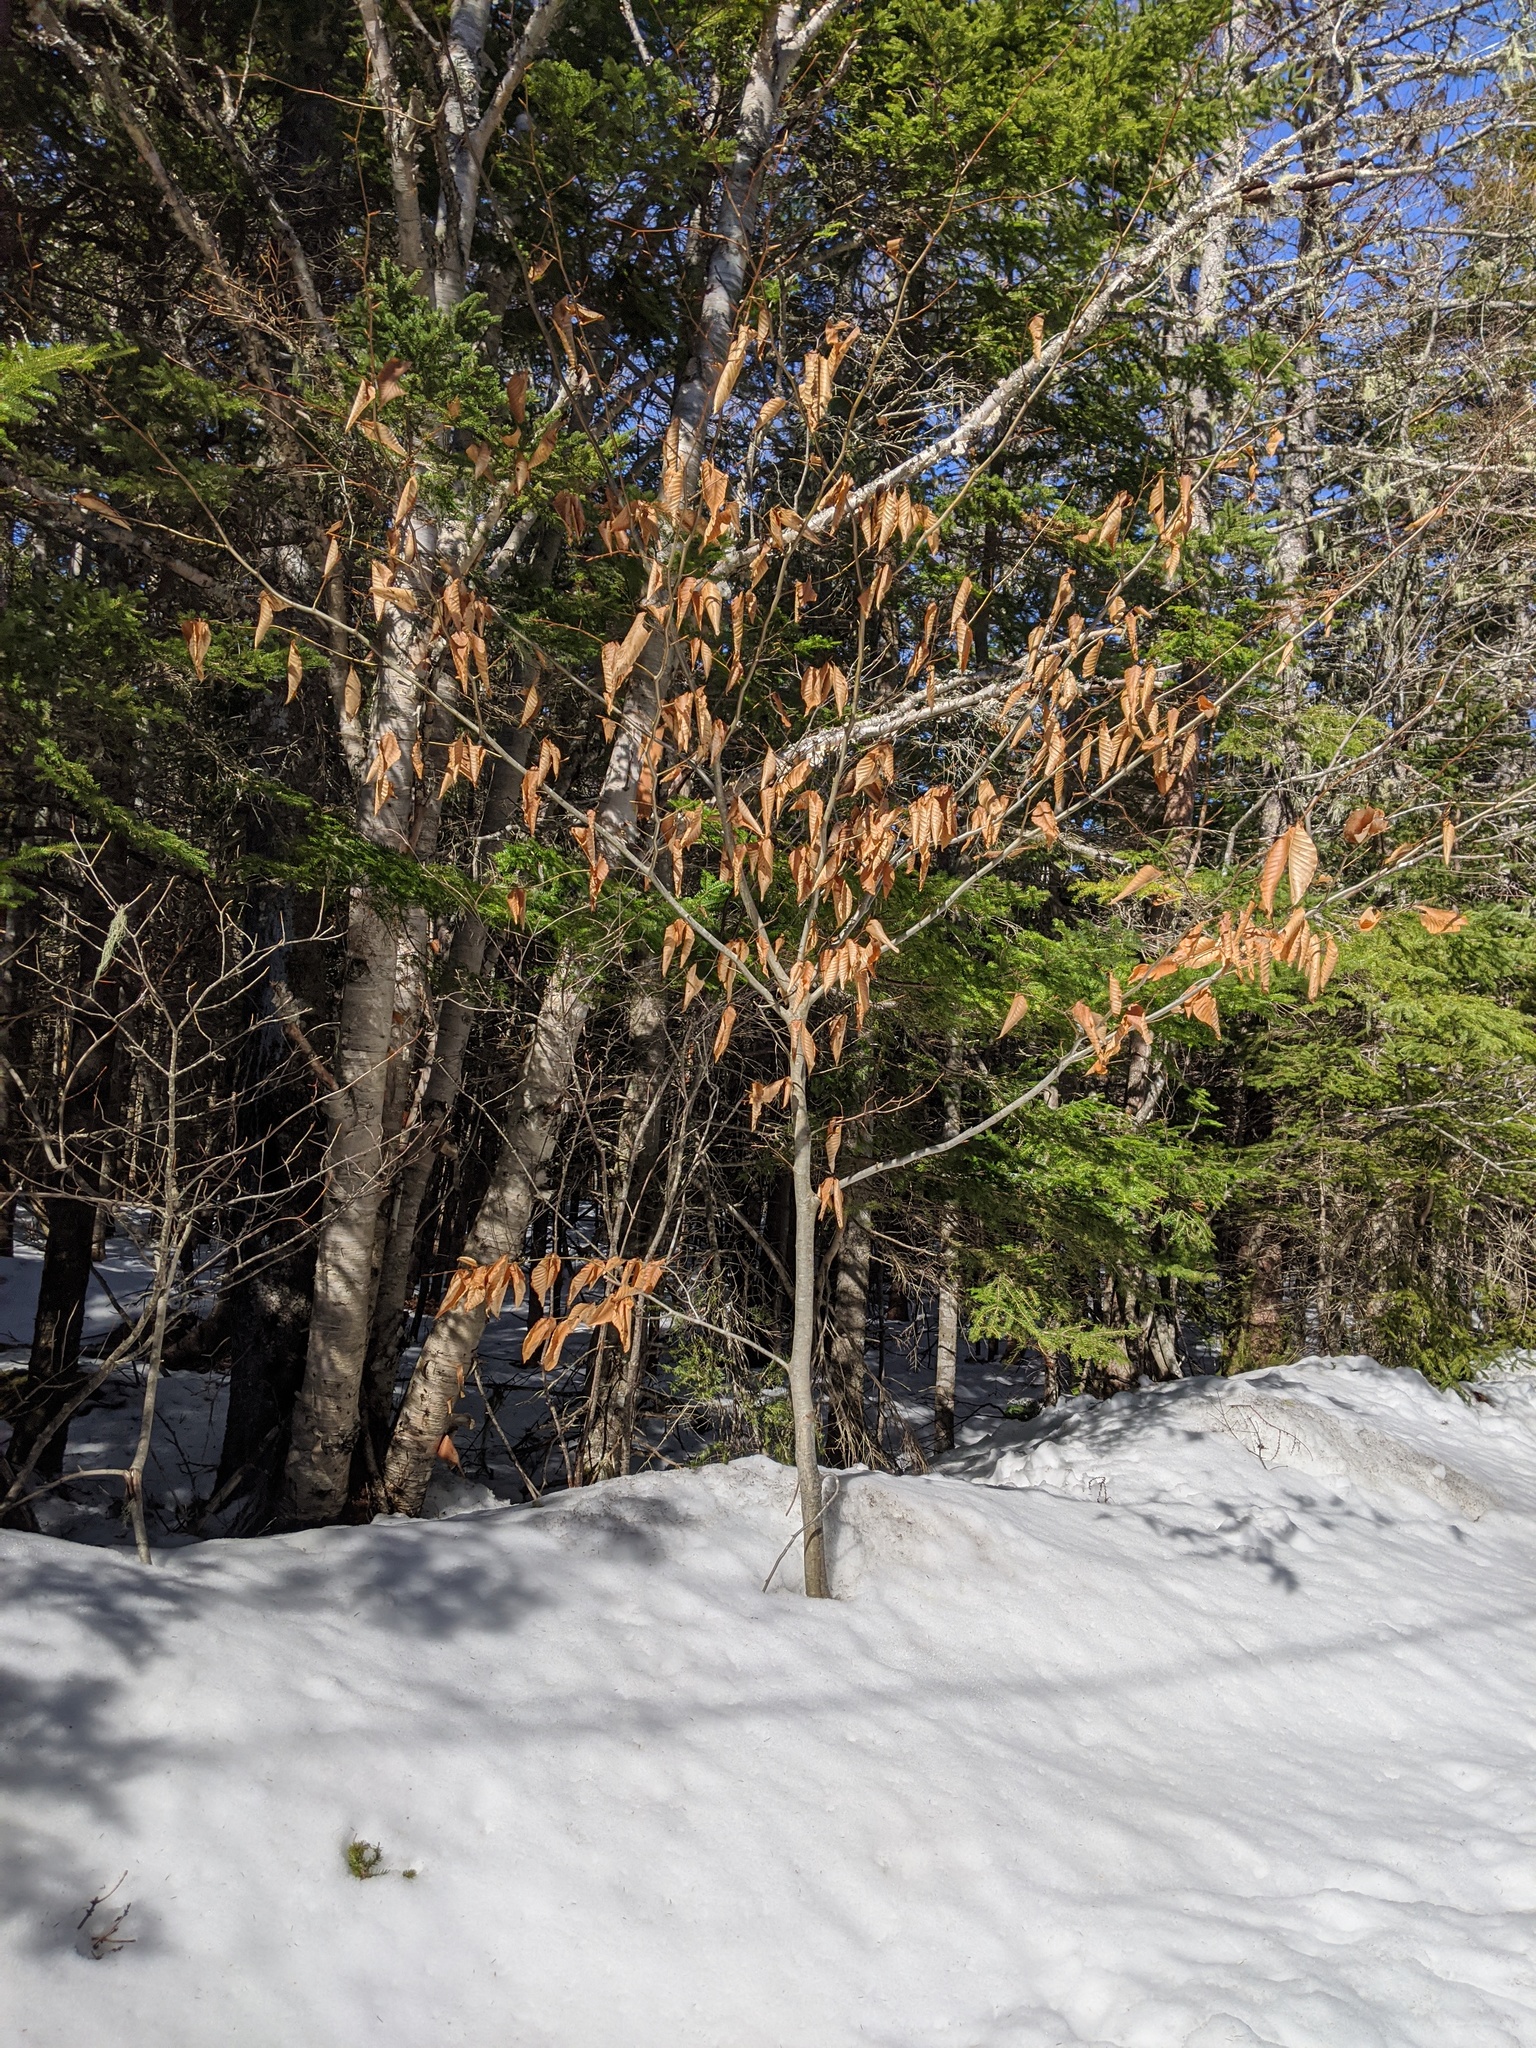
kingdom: Plantae
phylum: Tracheophyta
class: Magnoliopsida
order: Fagales
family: Fagaceae
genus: Fagus
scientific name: Fagus grandifolia
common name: American beech
